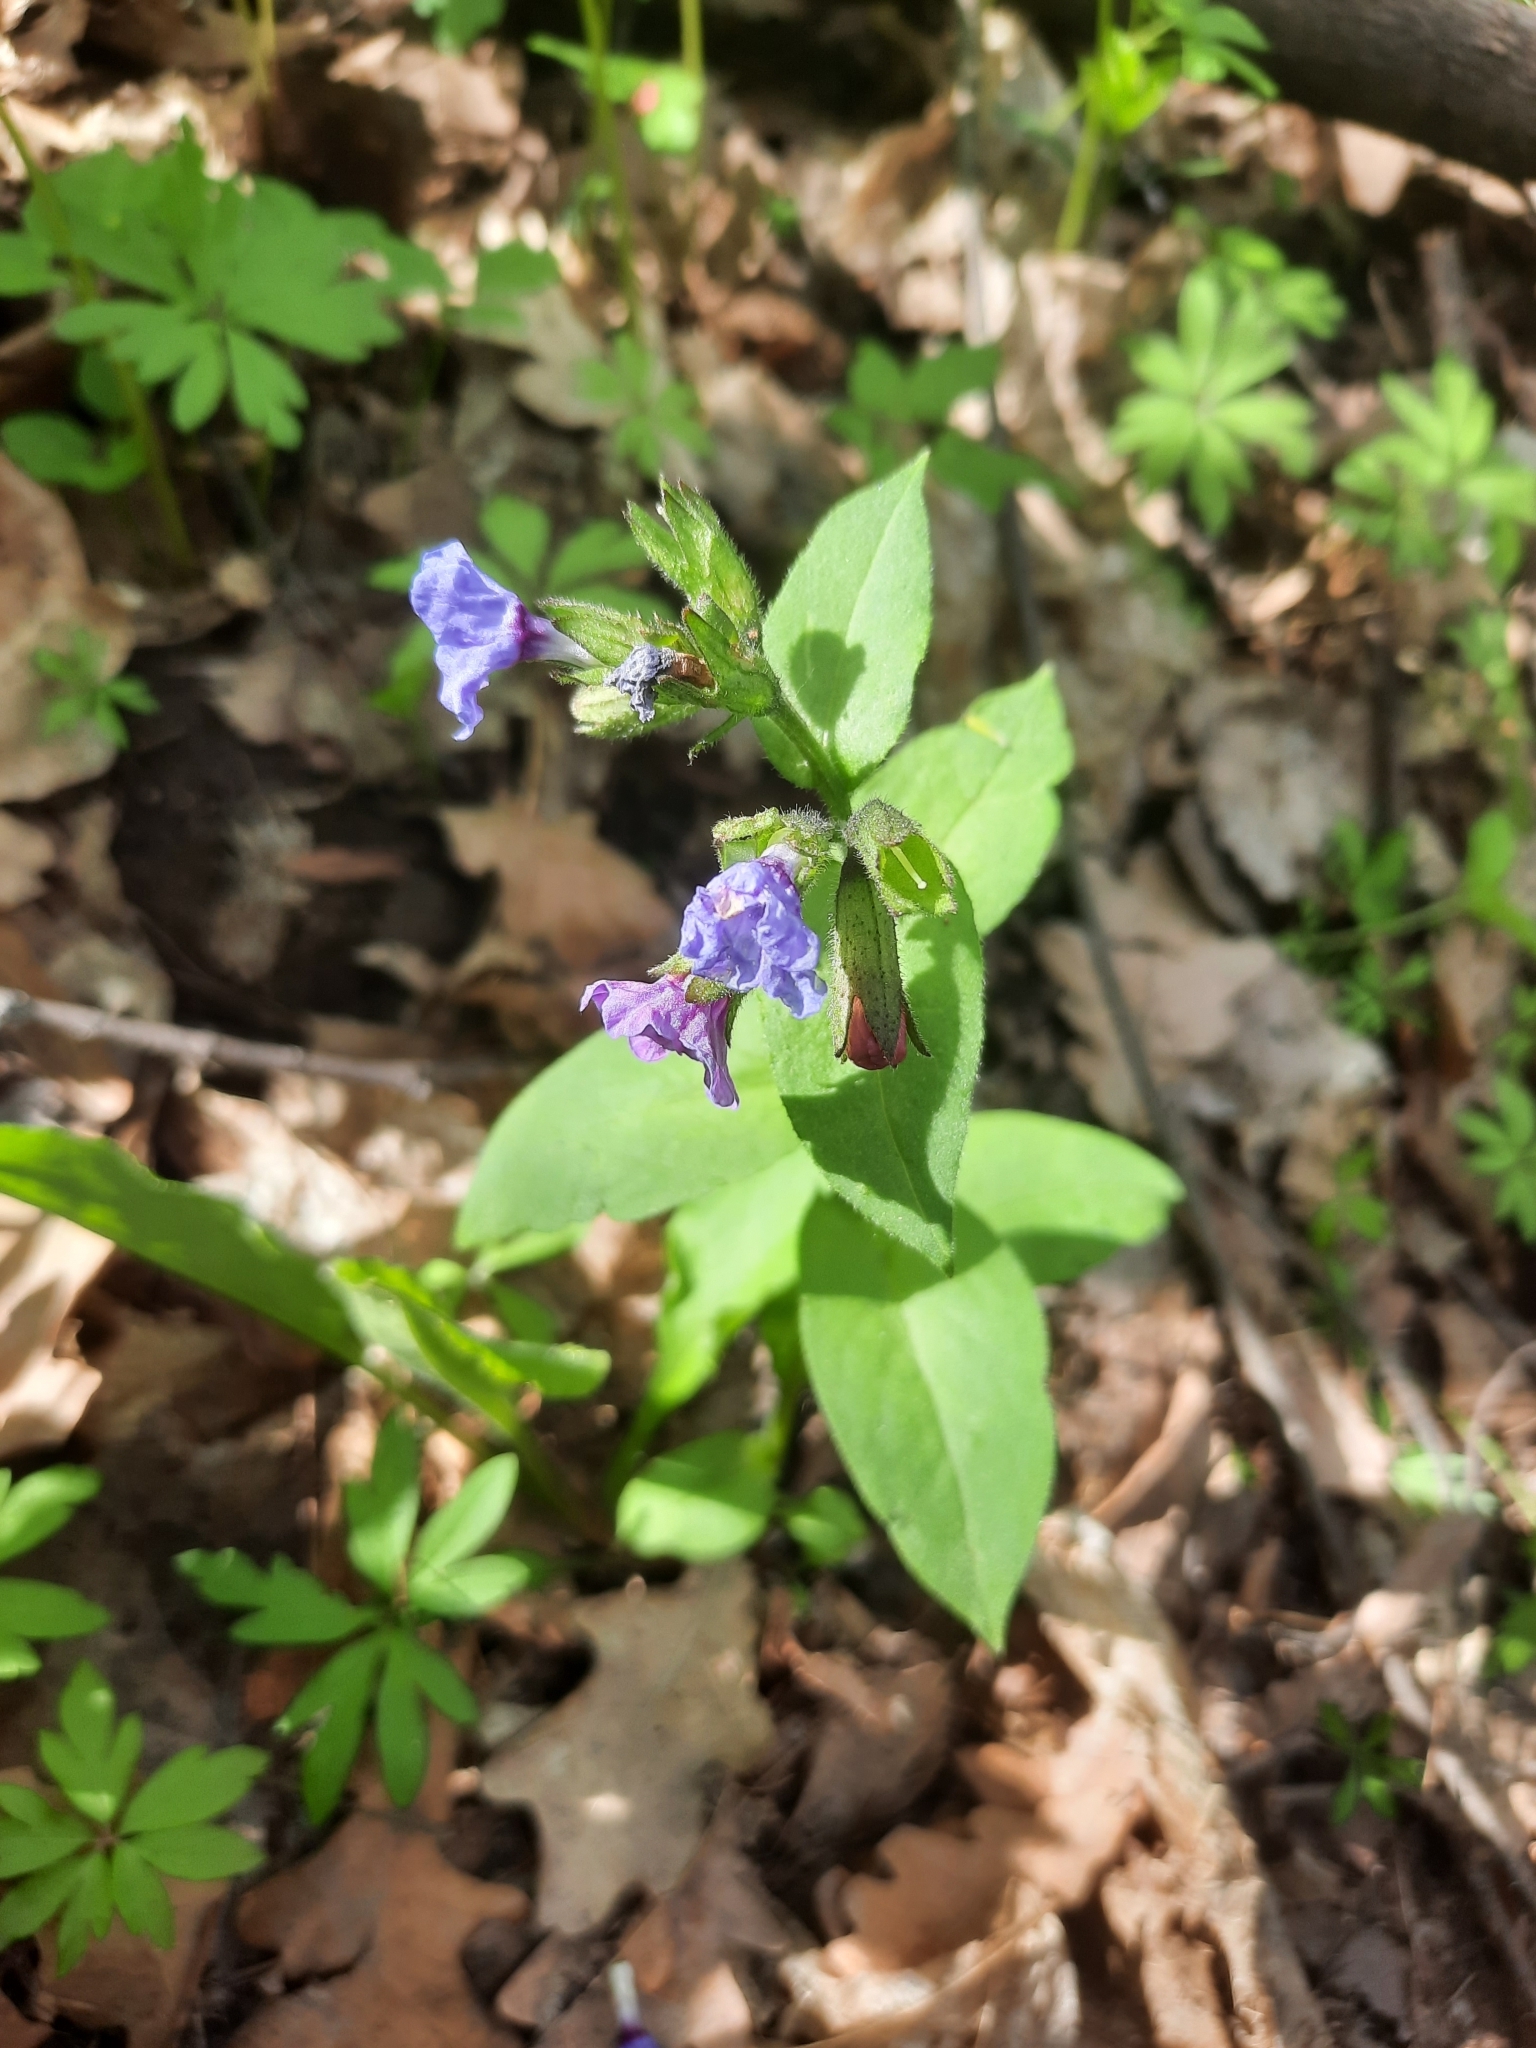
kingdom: Plantae
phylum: Tracheophyta
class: Magnoliopsida
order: Boraginales
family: Boraginaceae
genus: Pulmonaria
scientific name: Pulmonaria obscura
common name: Suffolk lungwort
